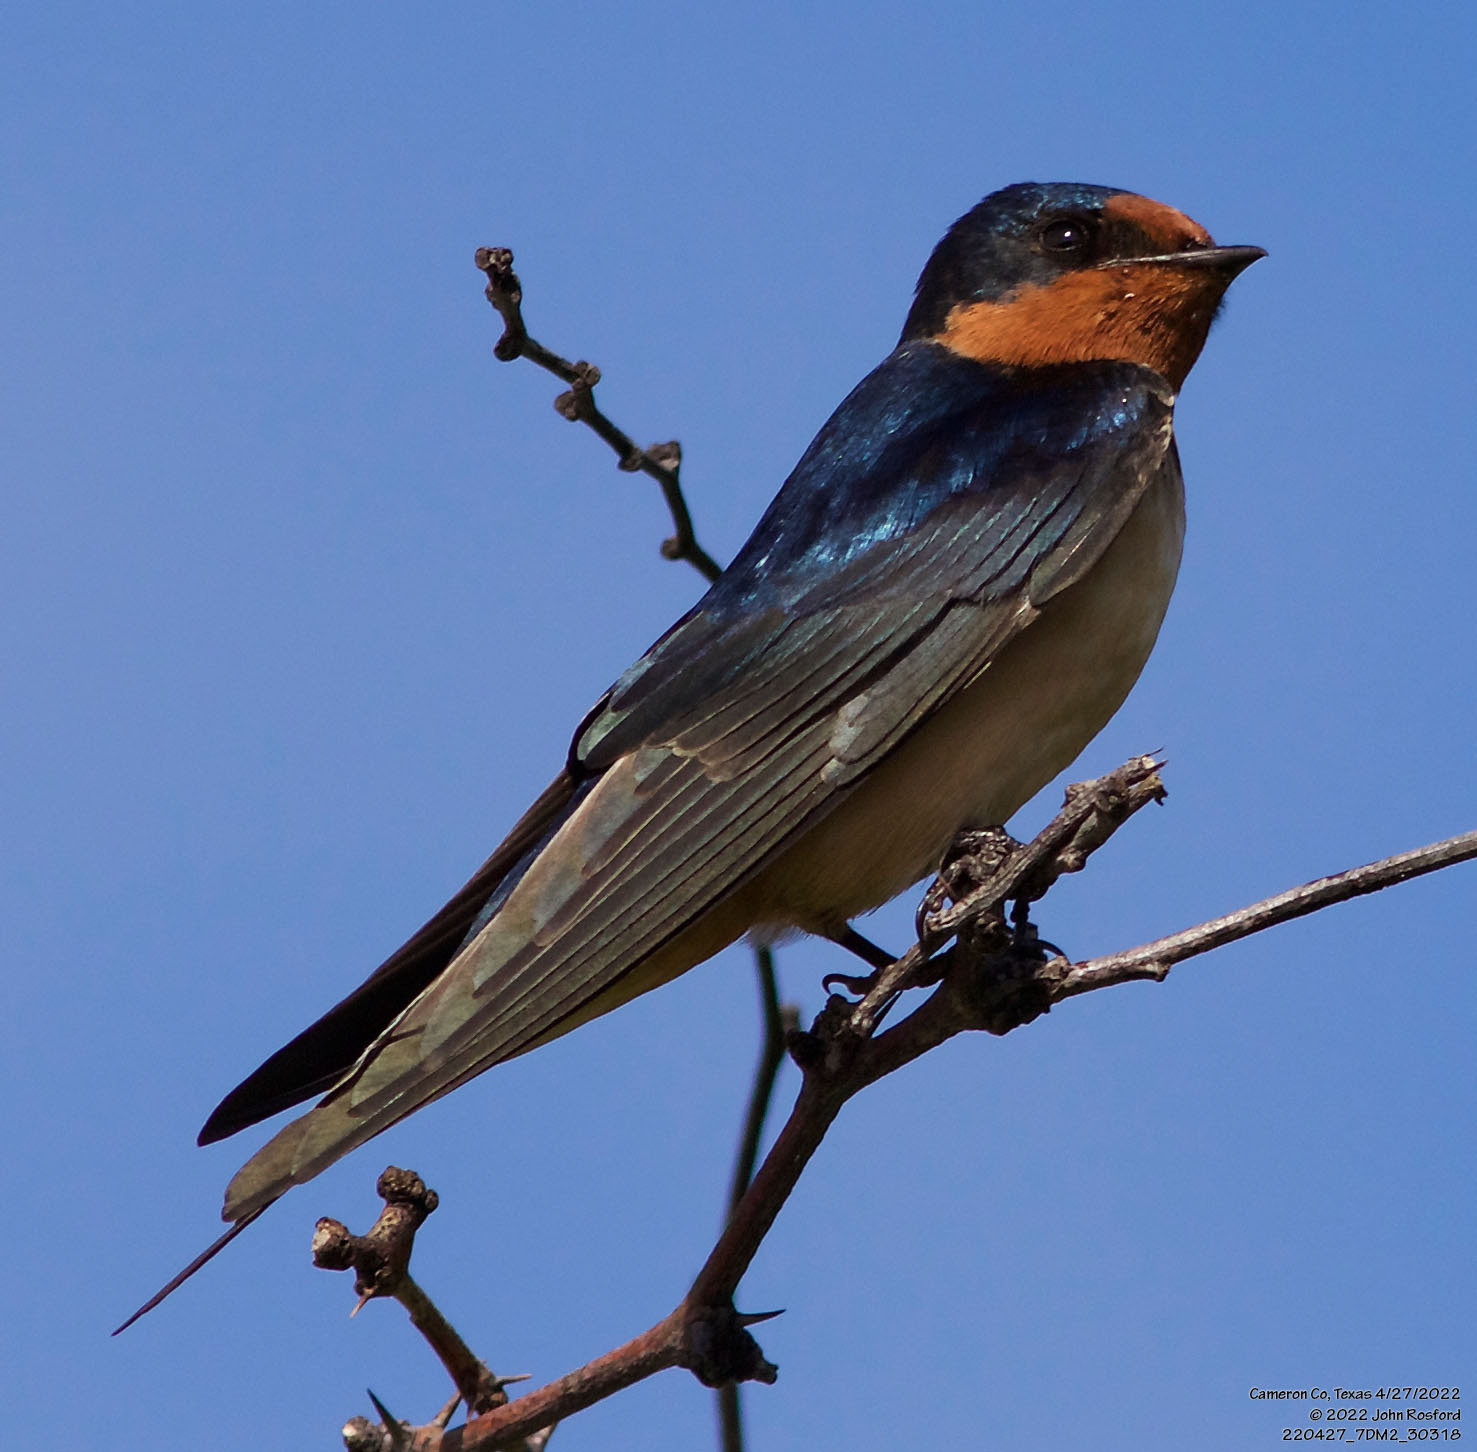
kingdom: Animalia
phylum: Chordata
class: Aves
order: Passeriformes
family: Hirundinidae
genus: Hirundo
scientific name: Hirundo rustica
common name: Barn swallow
